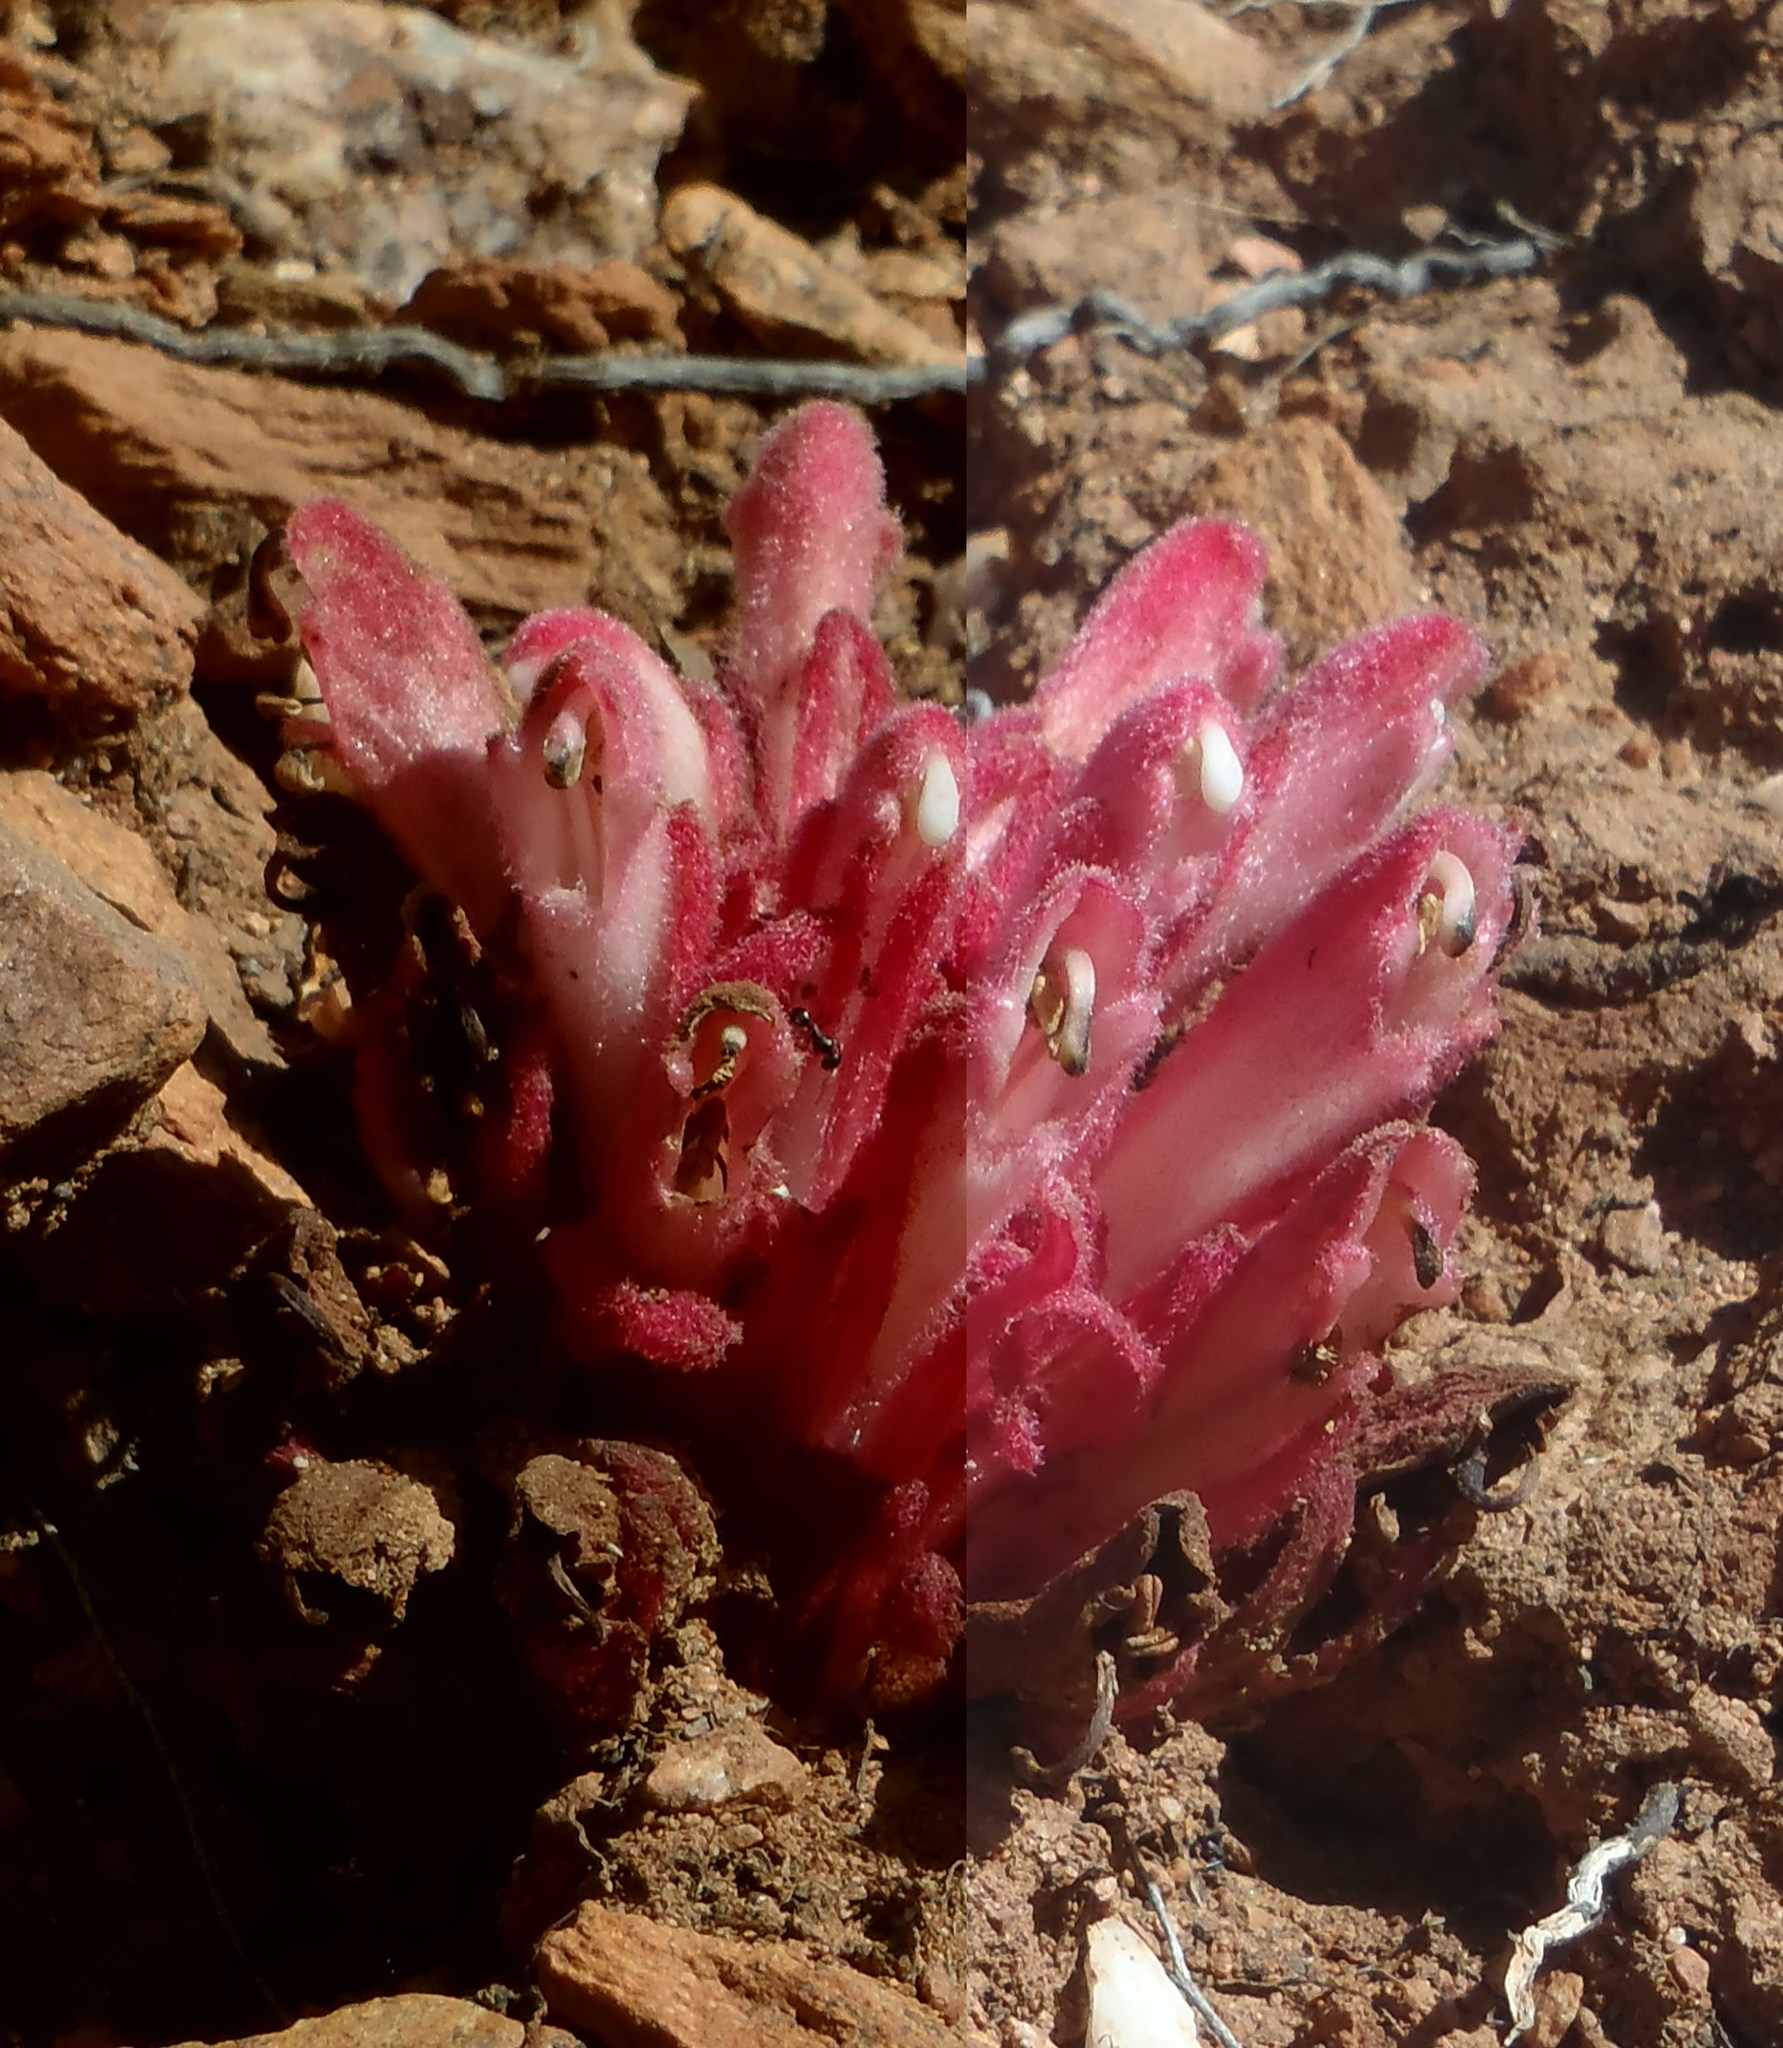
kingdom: Plantae
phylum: Tracheophyta
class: Magnoliopsida
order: Lamiales
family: Orobanchaceae
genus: Hyobanche
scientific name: Hyobanche sanguinea
